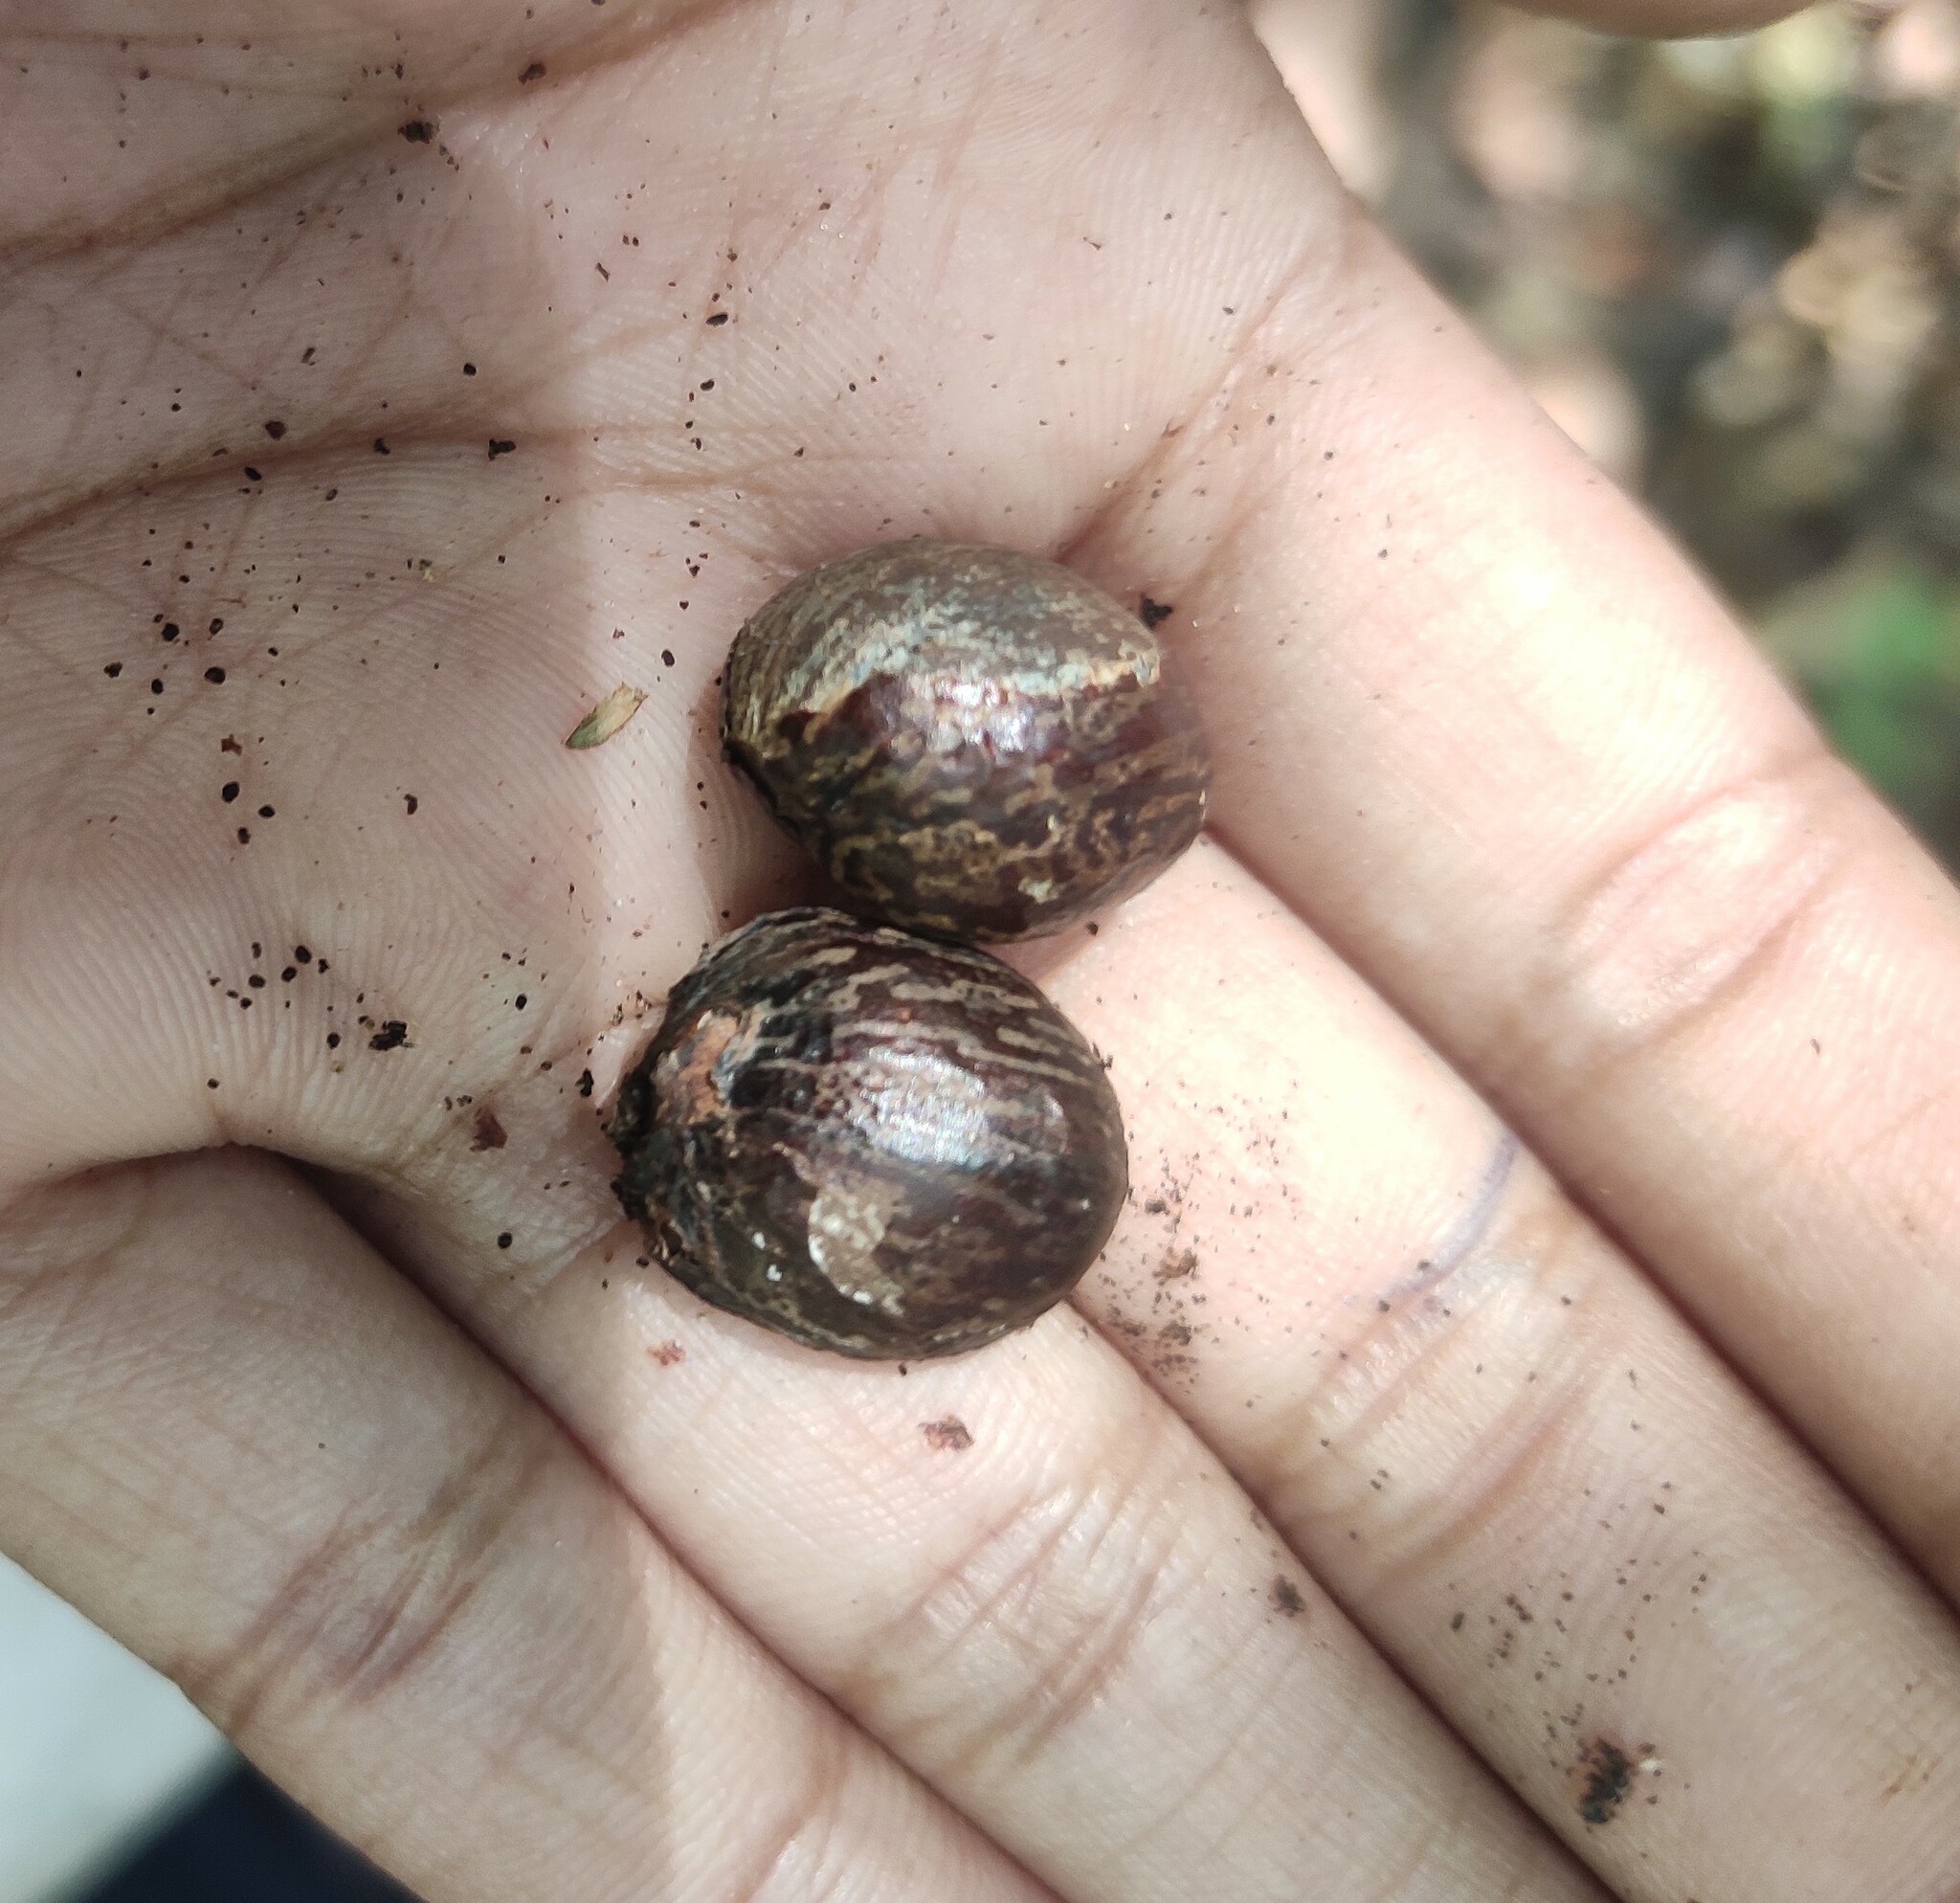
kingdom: Plantae
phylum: Tracheophyta
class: Magnoliopsida
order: Malpighiales
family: Euphorbiaceae
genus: Paracroton
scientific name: Paracroton pendulus
